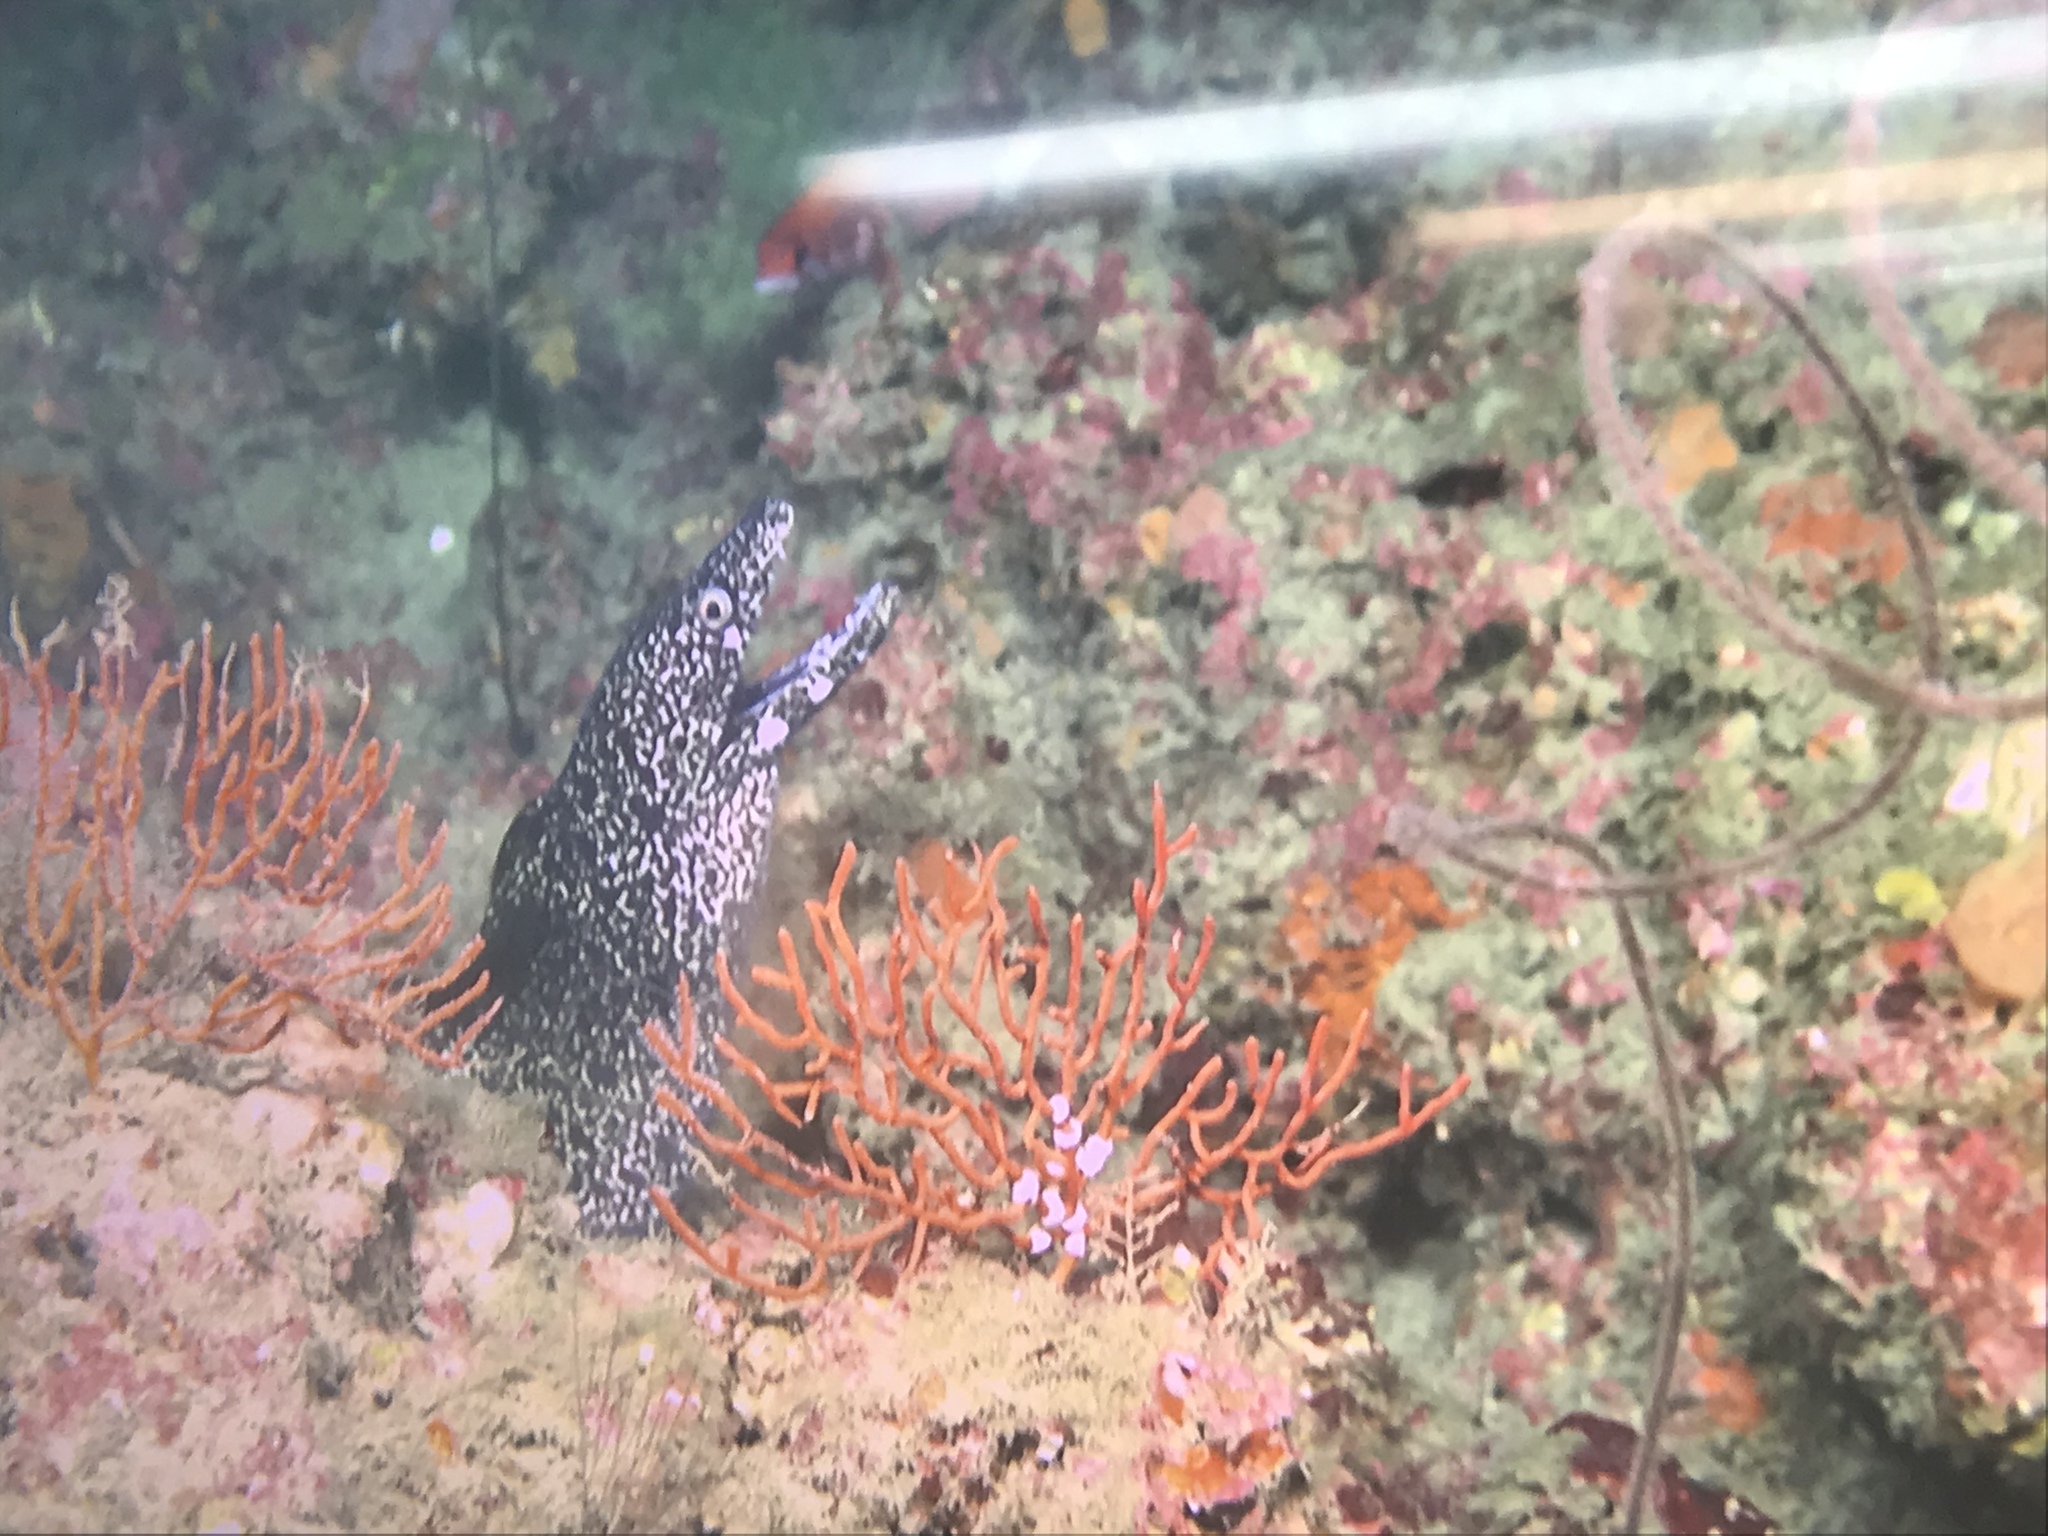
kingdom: Animalia
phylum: Chordata
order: Anguilliformes
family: Muraenidae
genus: Gymnothorax
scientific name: Gymnothorax moringa
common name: Spotted moray
